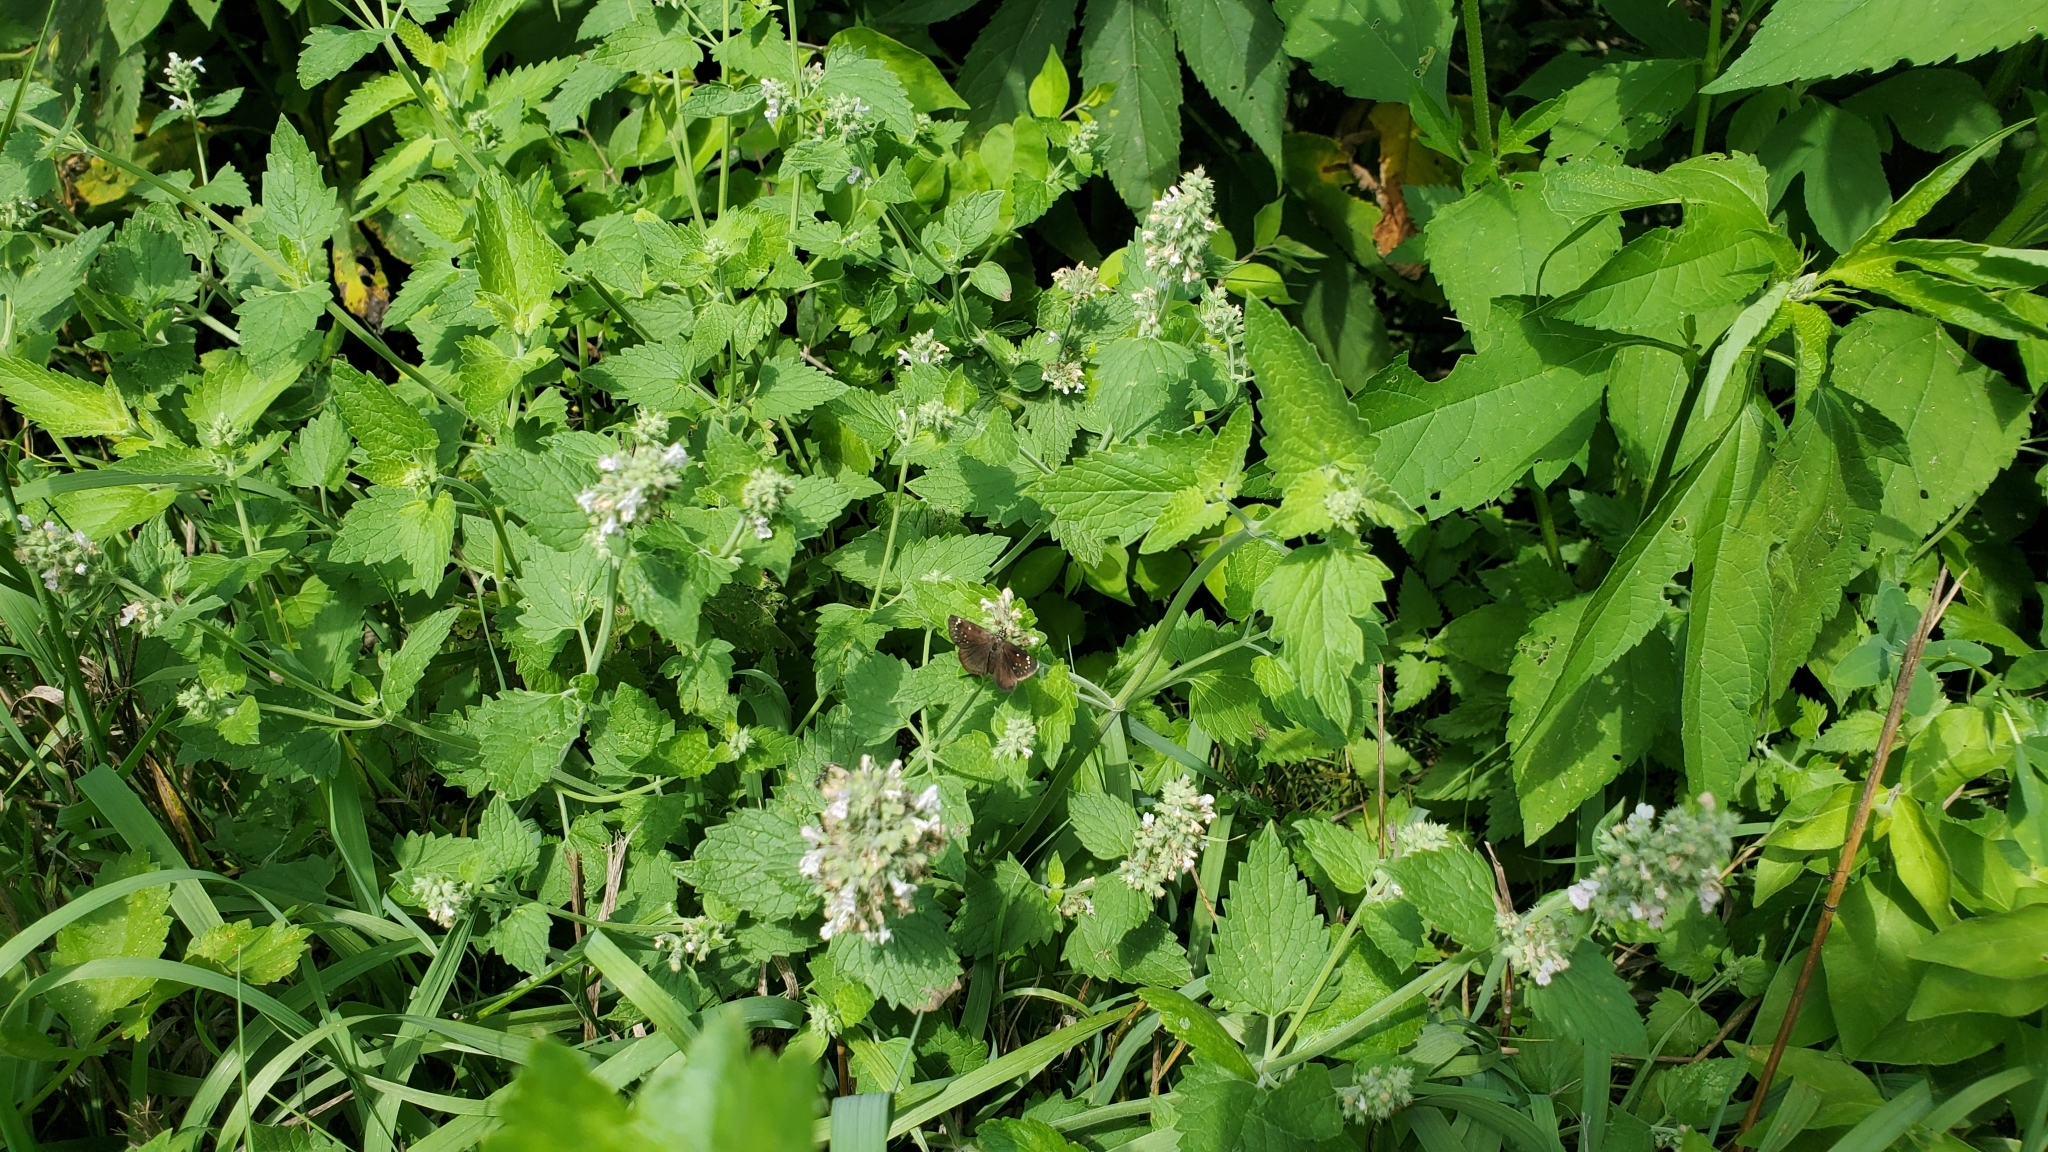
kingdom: Animalia
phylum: Arthropoda
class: Insecta
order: Lepidoptera
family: Hesperiidae
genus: Pholisora
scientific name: Pholisora catullus
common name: Common sootywing
